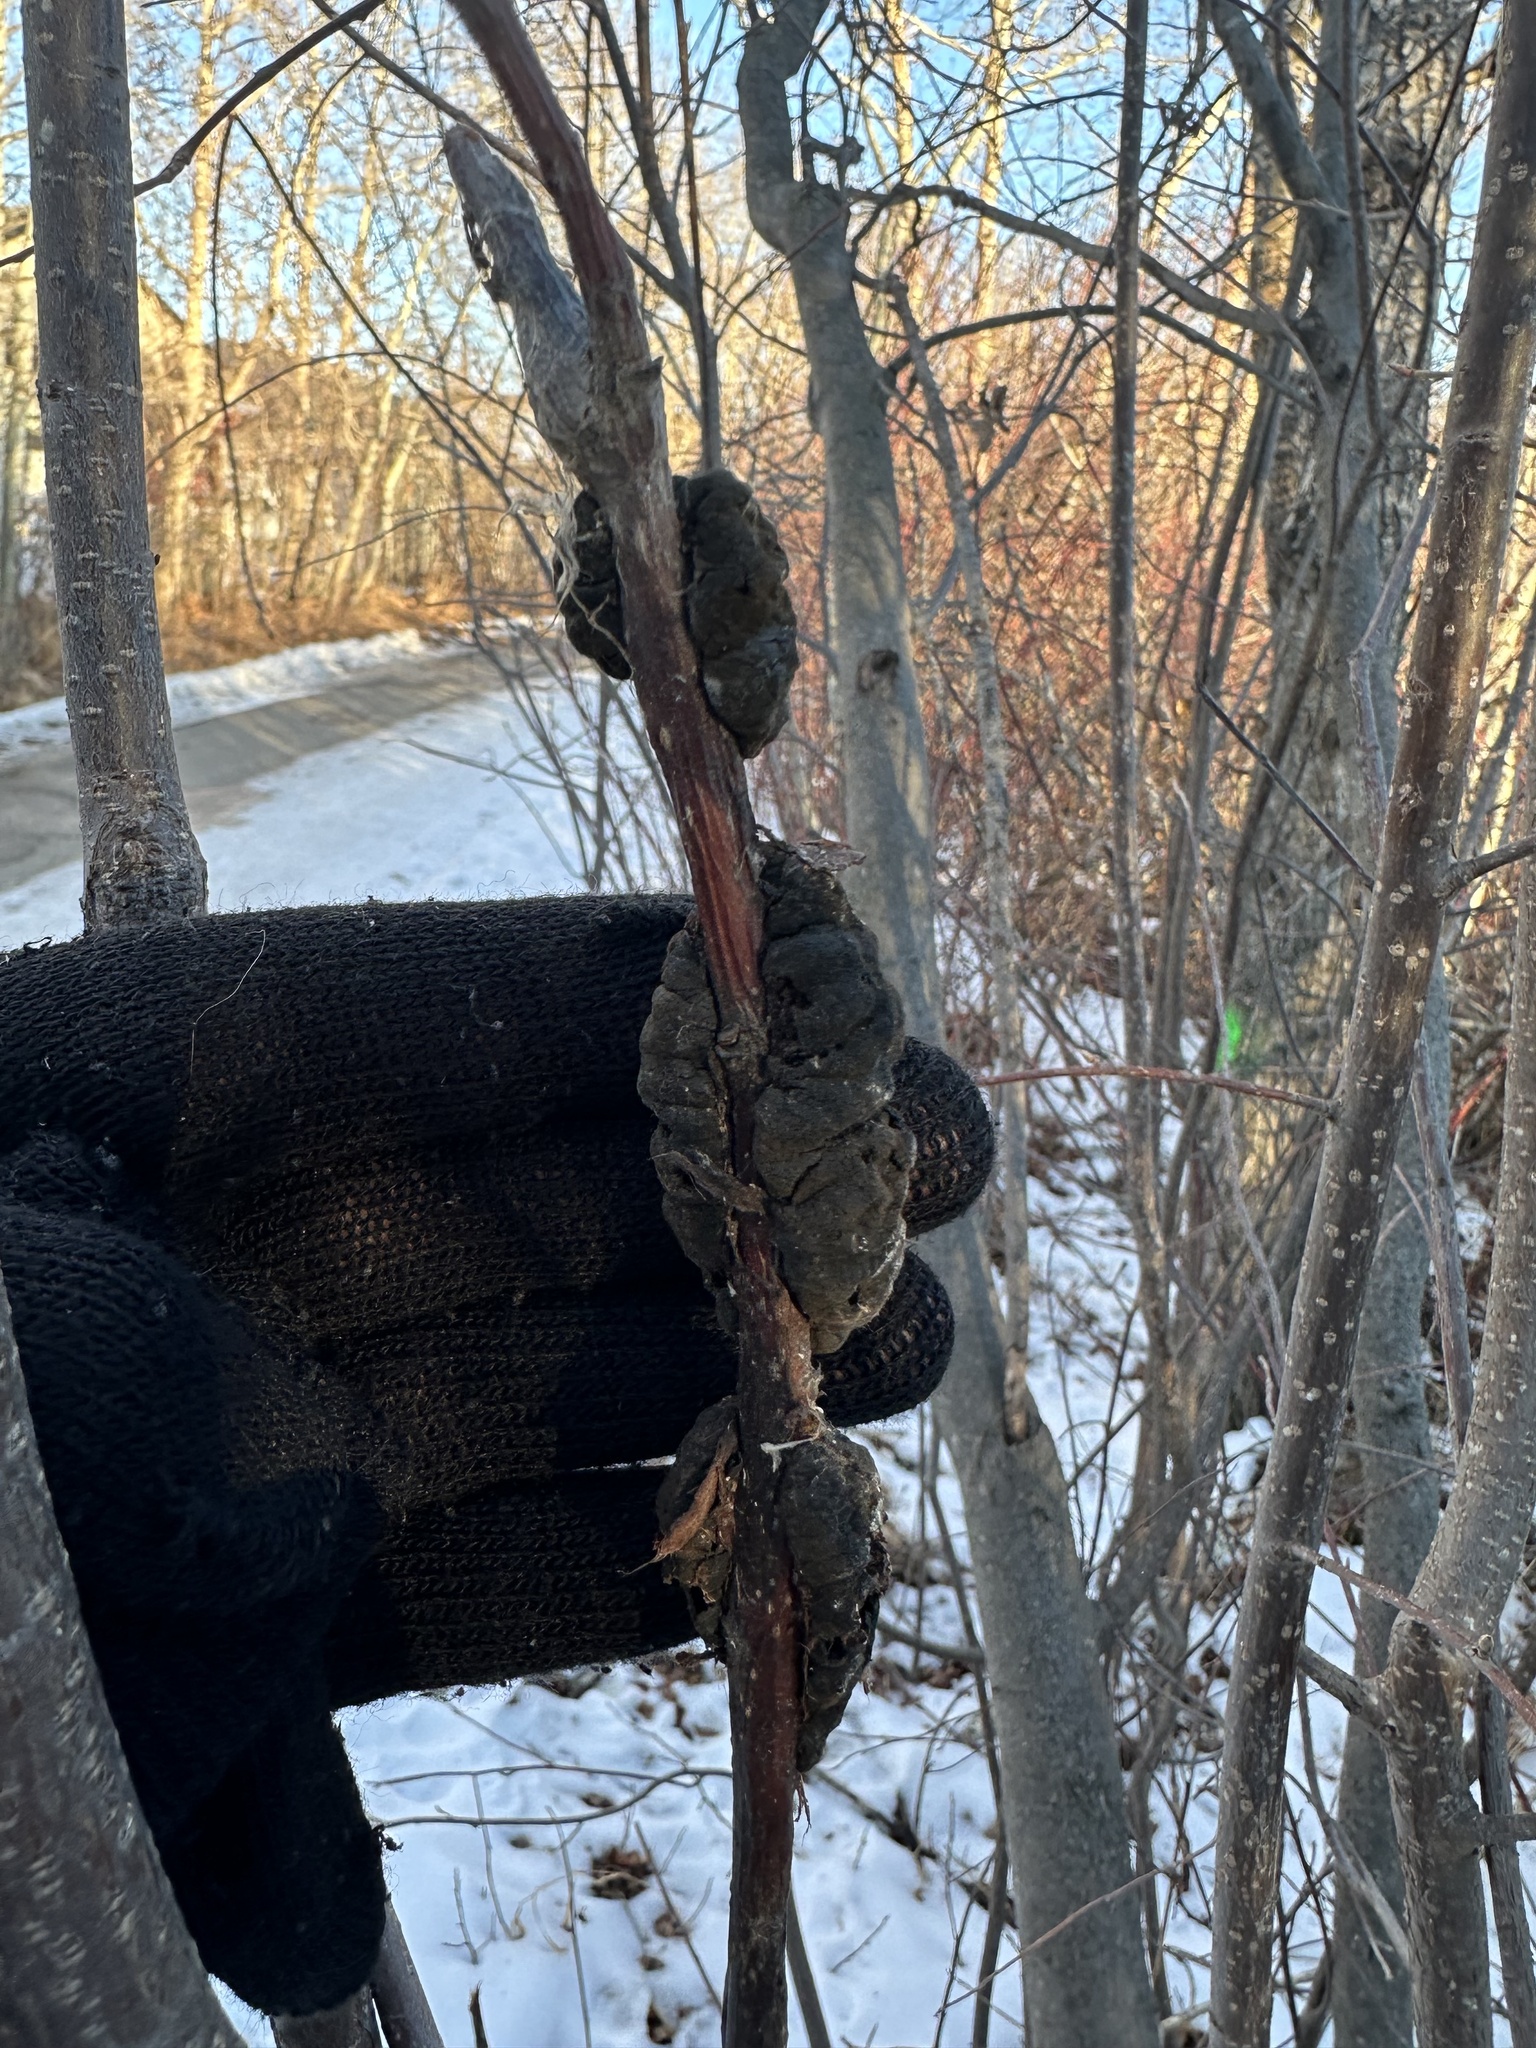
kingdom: Fungi
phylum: Ascomycota
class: Dothideomycetes
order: Venturiales
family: Venturiaceae
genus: Apiosporina
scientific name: Apiosporina morbosa
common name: Black knot
